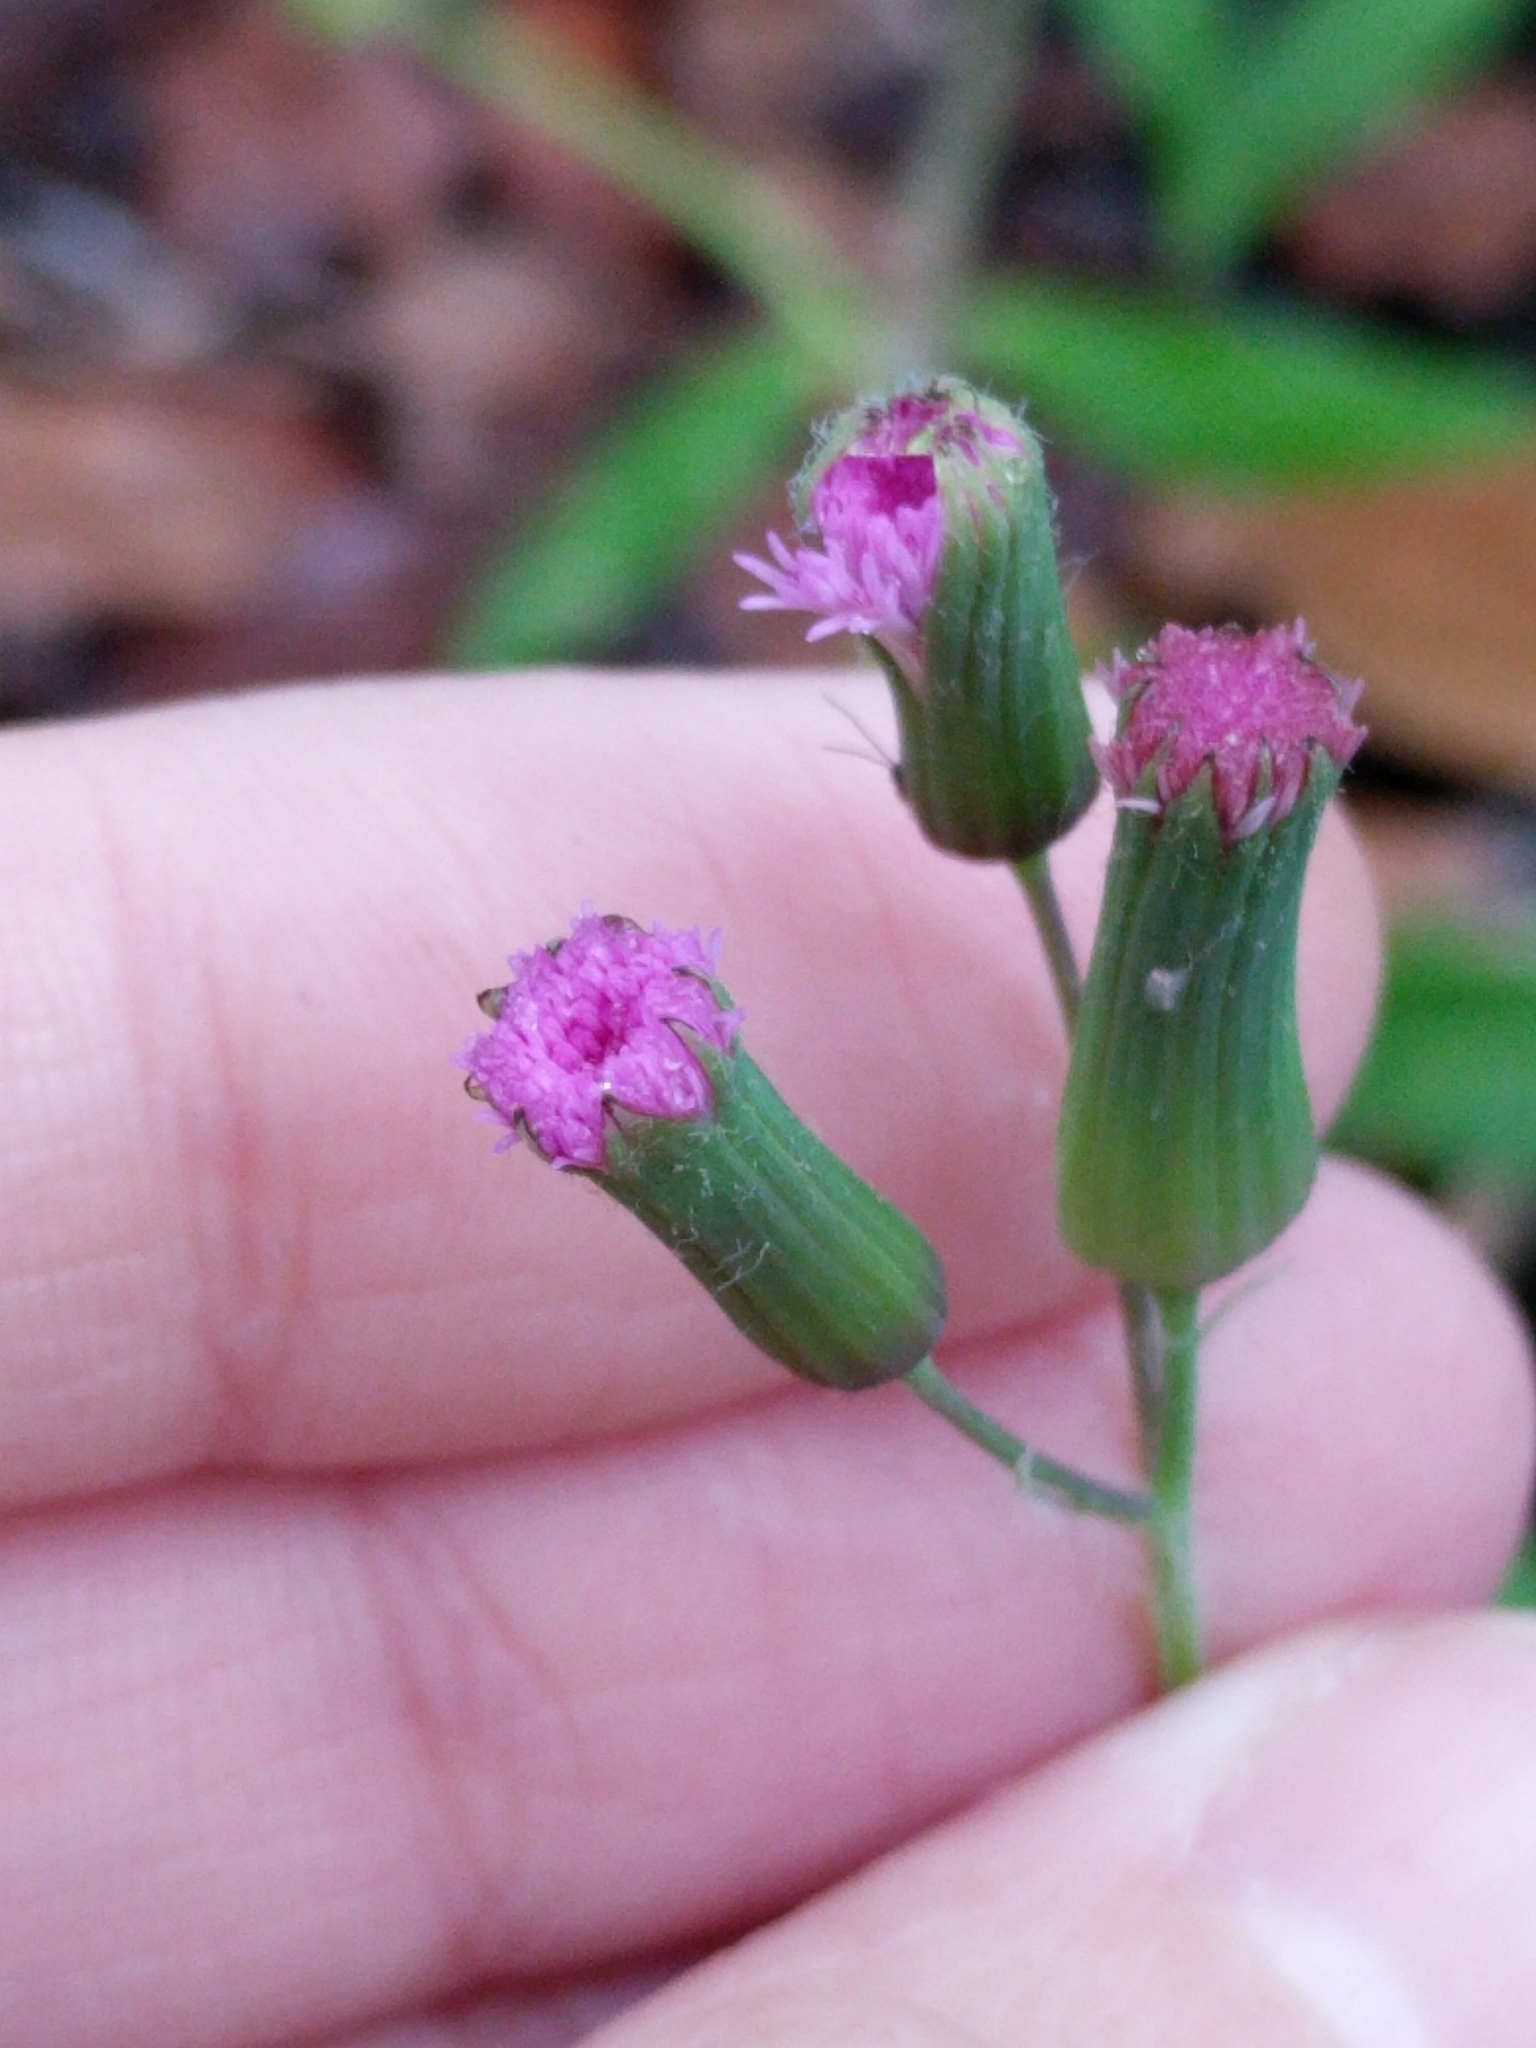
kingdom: Plantae
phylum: Tracheophyta
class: Magnoliopsida
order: Asterales
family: Asteraceae
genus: Emilia
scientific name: Emilia sonchifolia
